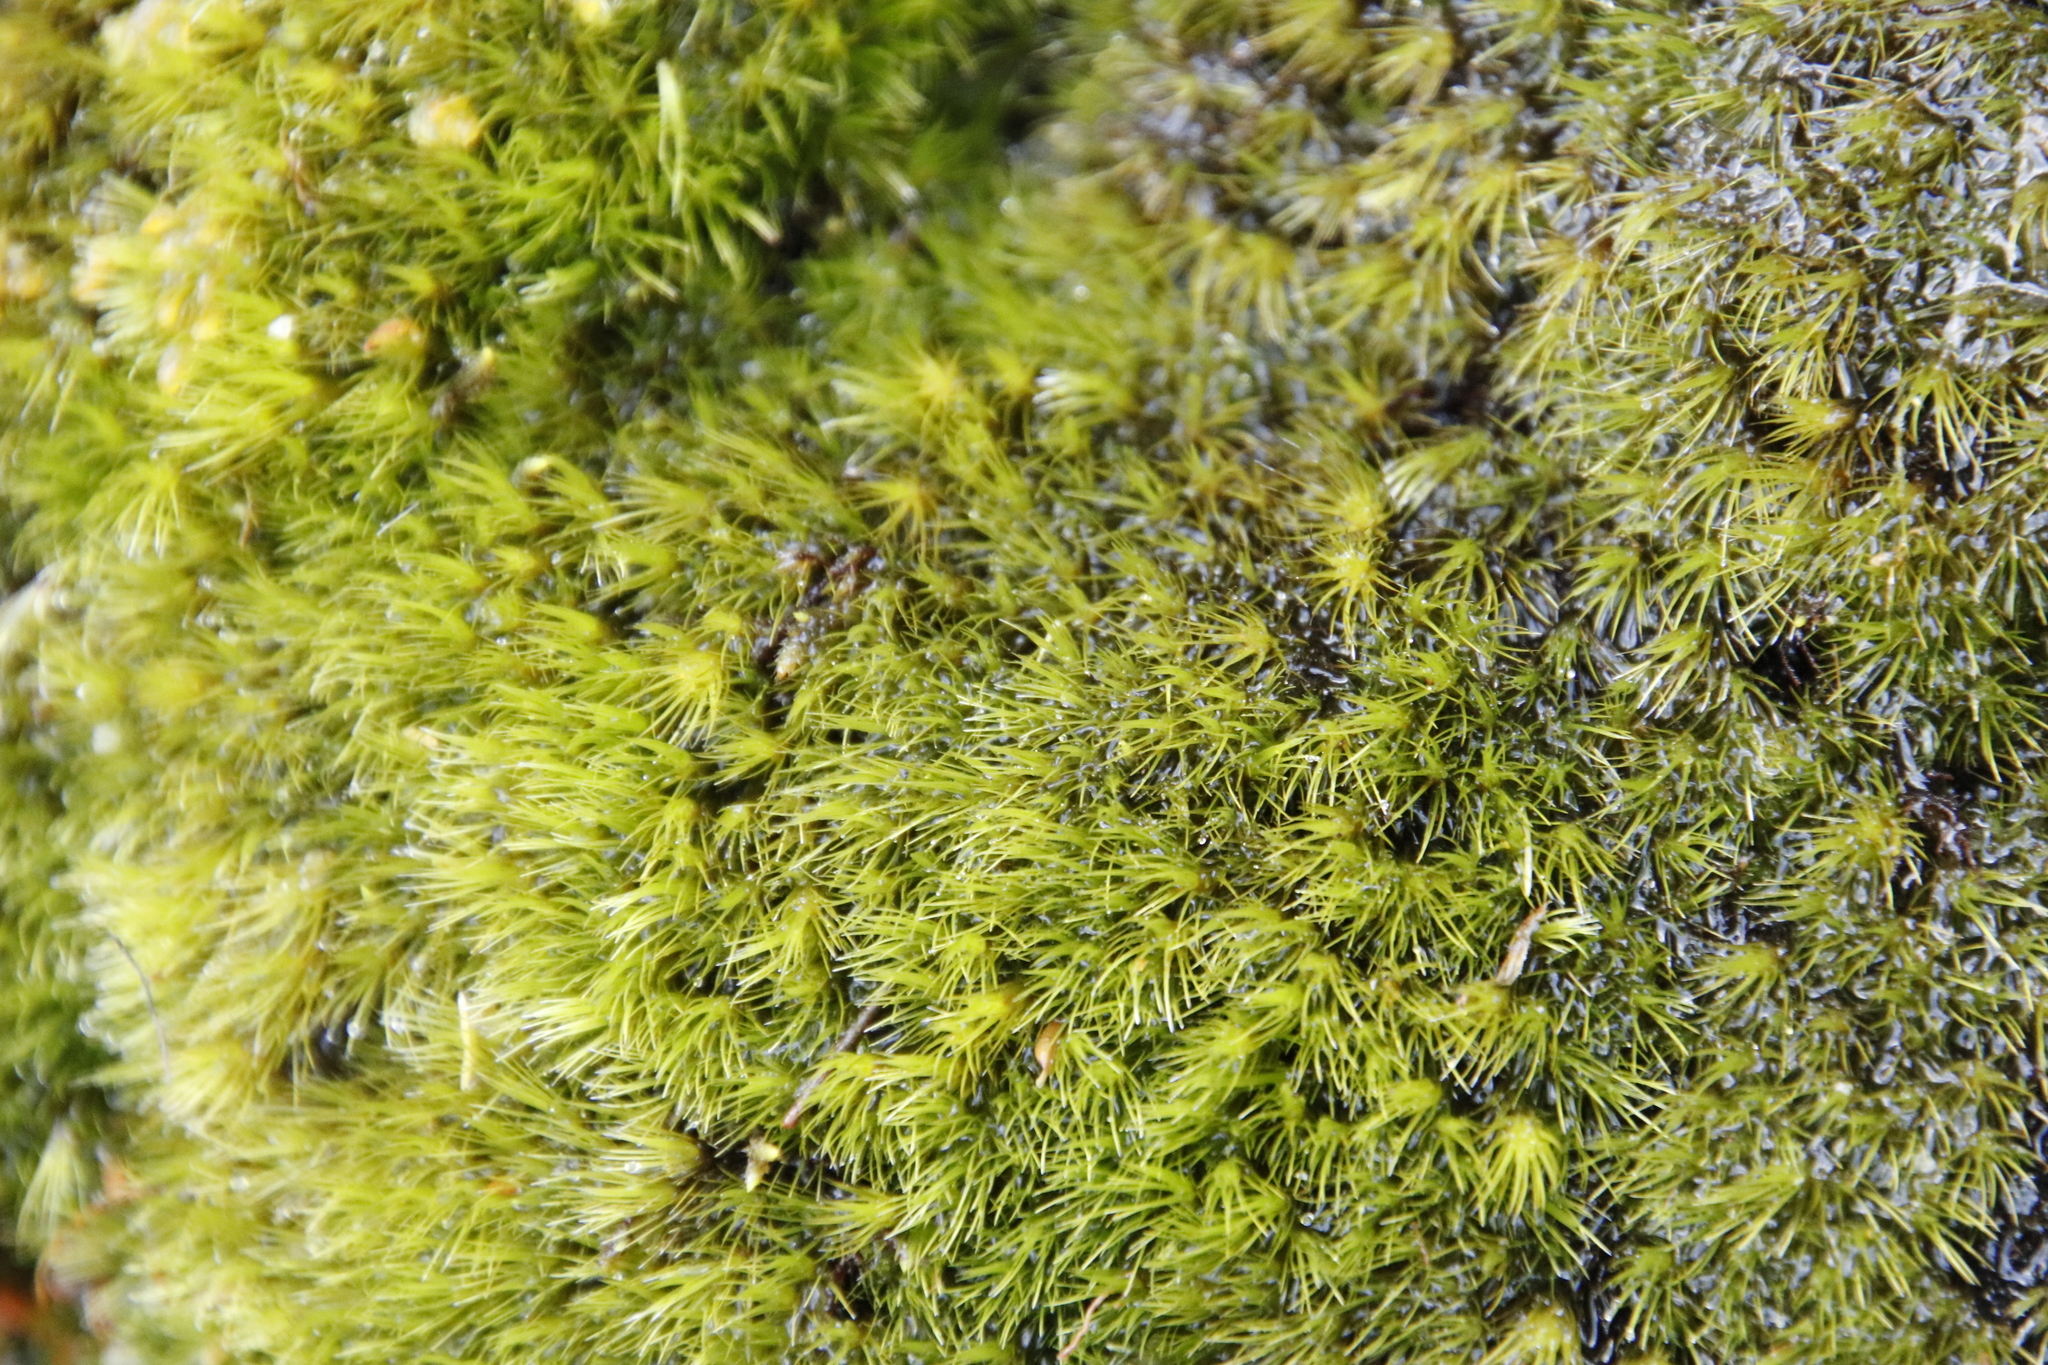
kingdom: Plantae
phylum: Bryophyta
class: Bryopsida
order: Dicranales
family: Leucobryaceae
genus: Campylopus
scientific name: Campylopus bartramiaceus
